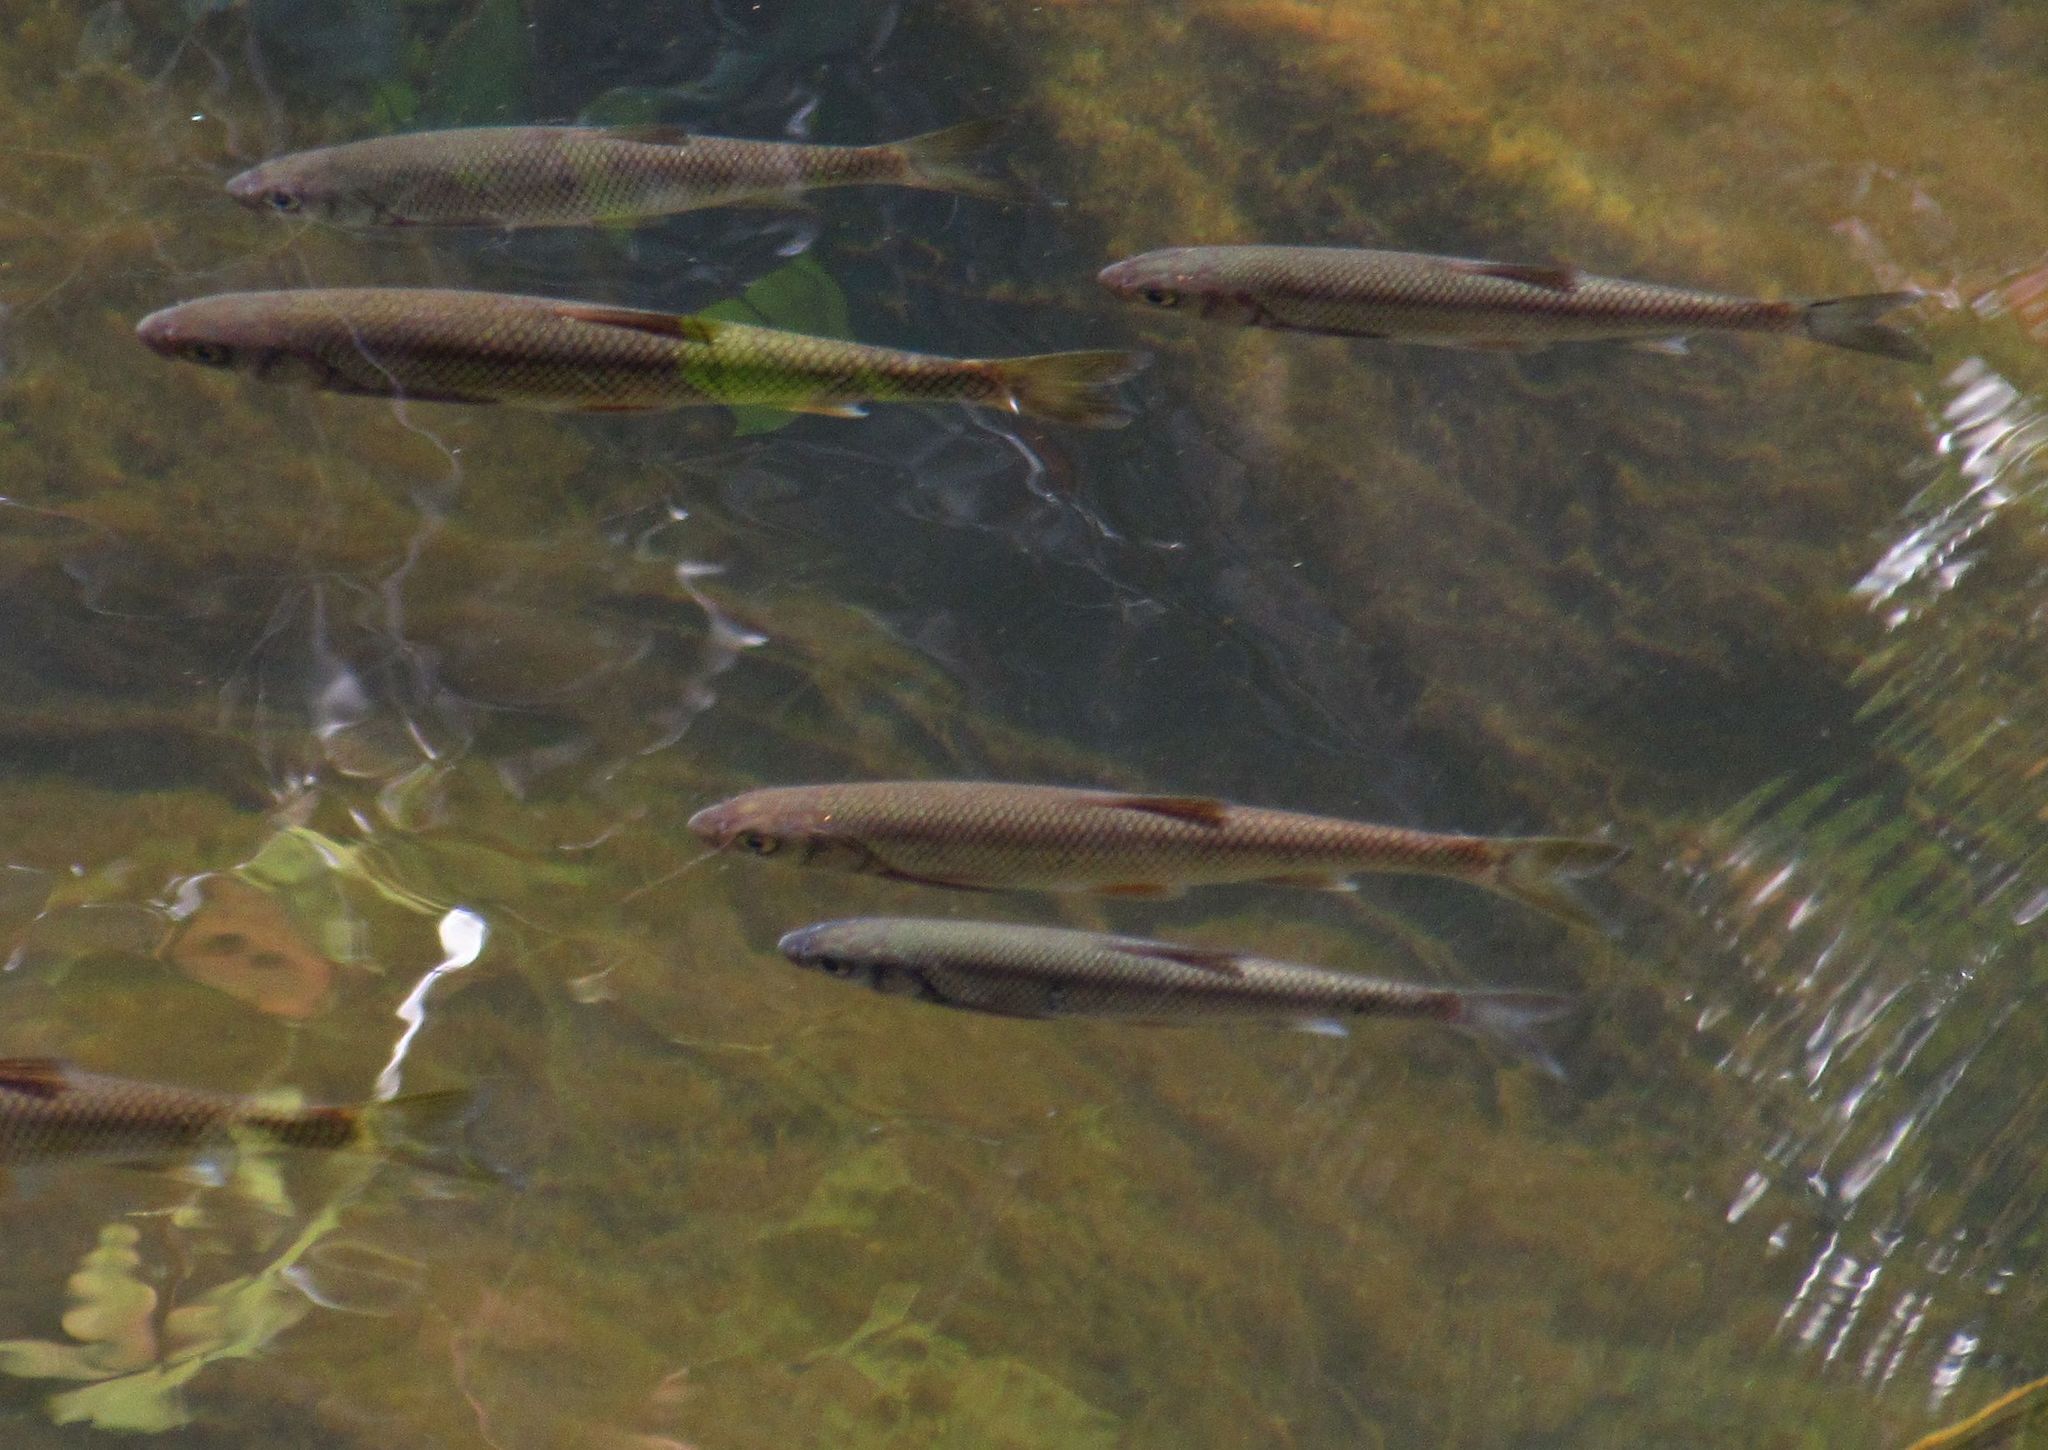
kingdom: Animalia
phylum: Chordata
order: Cypriniformes
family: Cyprinidae
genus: Leuciscus
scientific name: Leuciscus leuciscus
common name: Dace
